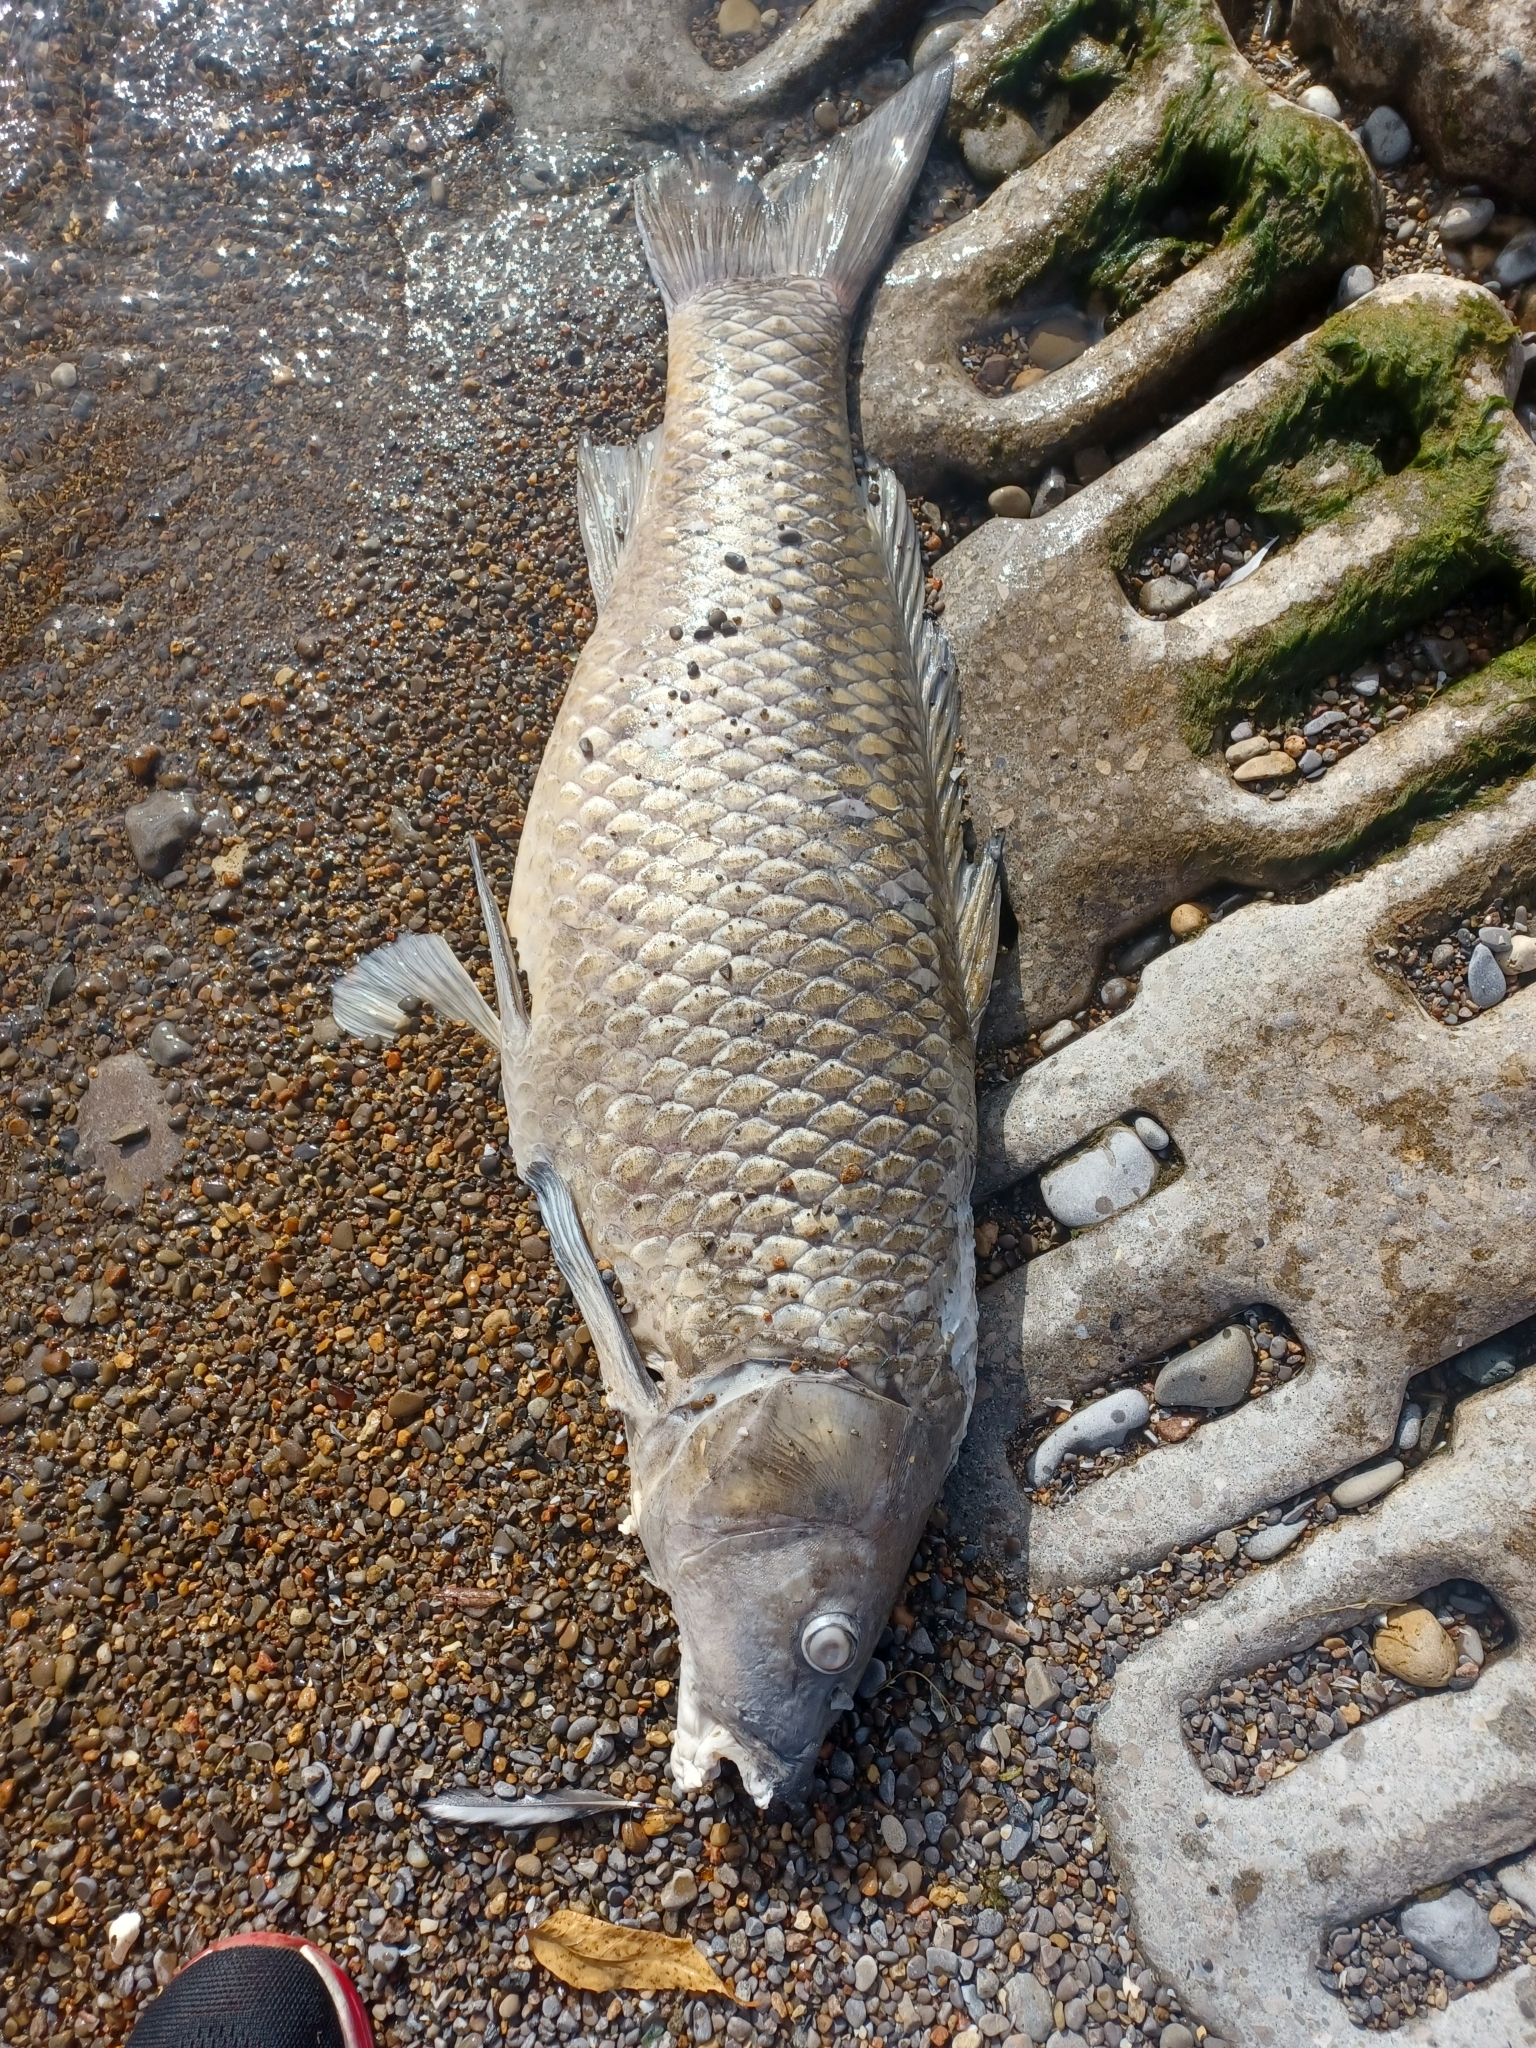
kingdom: Animalia
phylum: Chordata
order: Cypriniformes
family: Cyprinidae
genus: Cyprinus
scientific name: Cyprinus carpio
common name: Common carp
